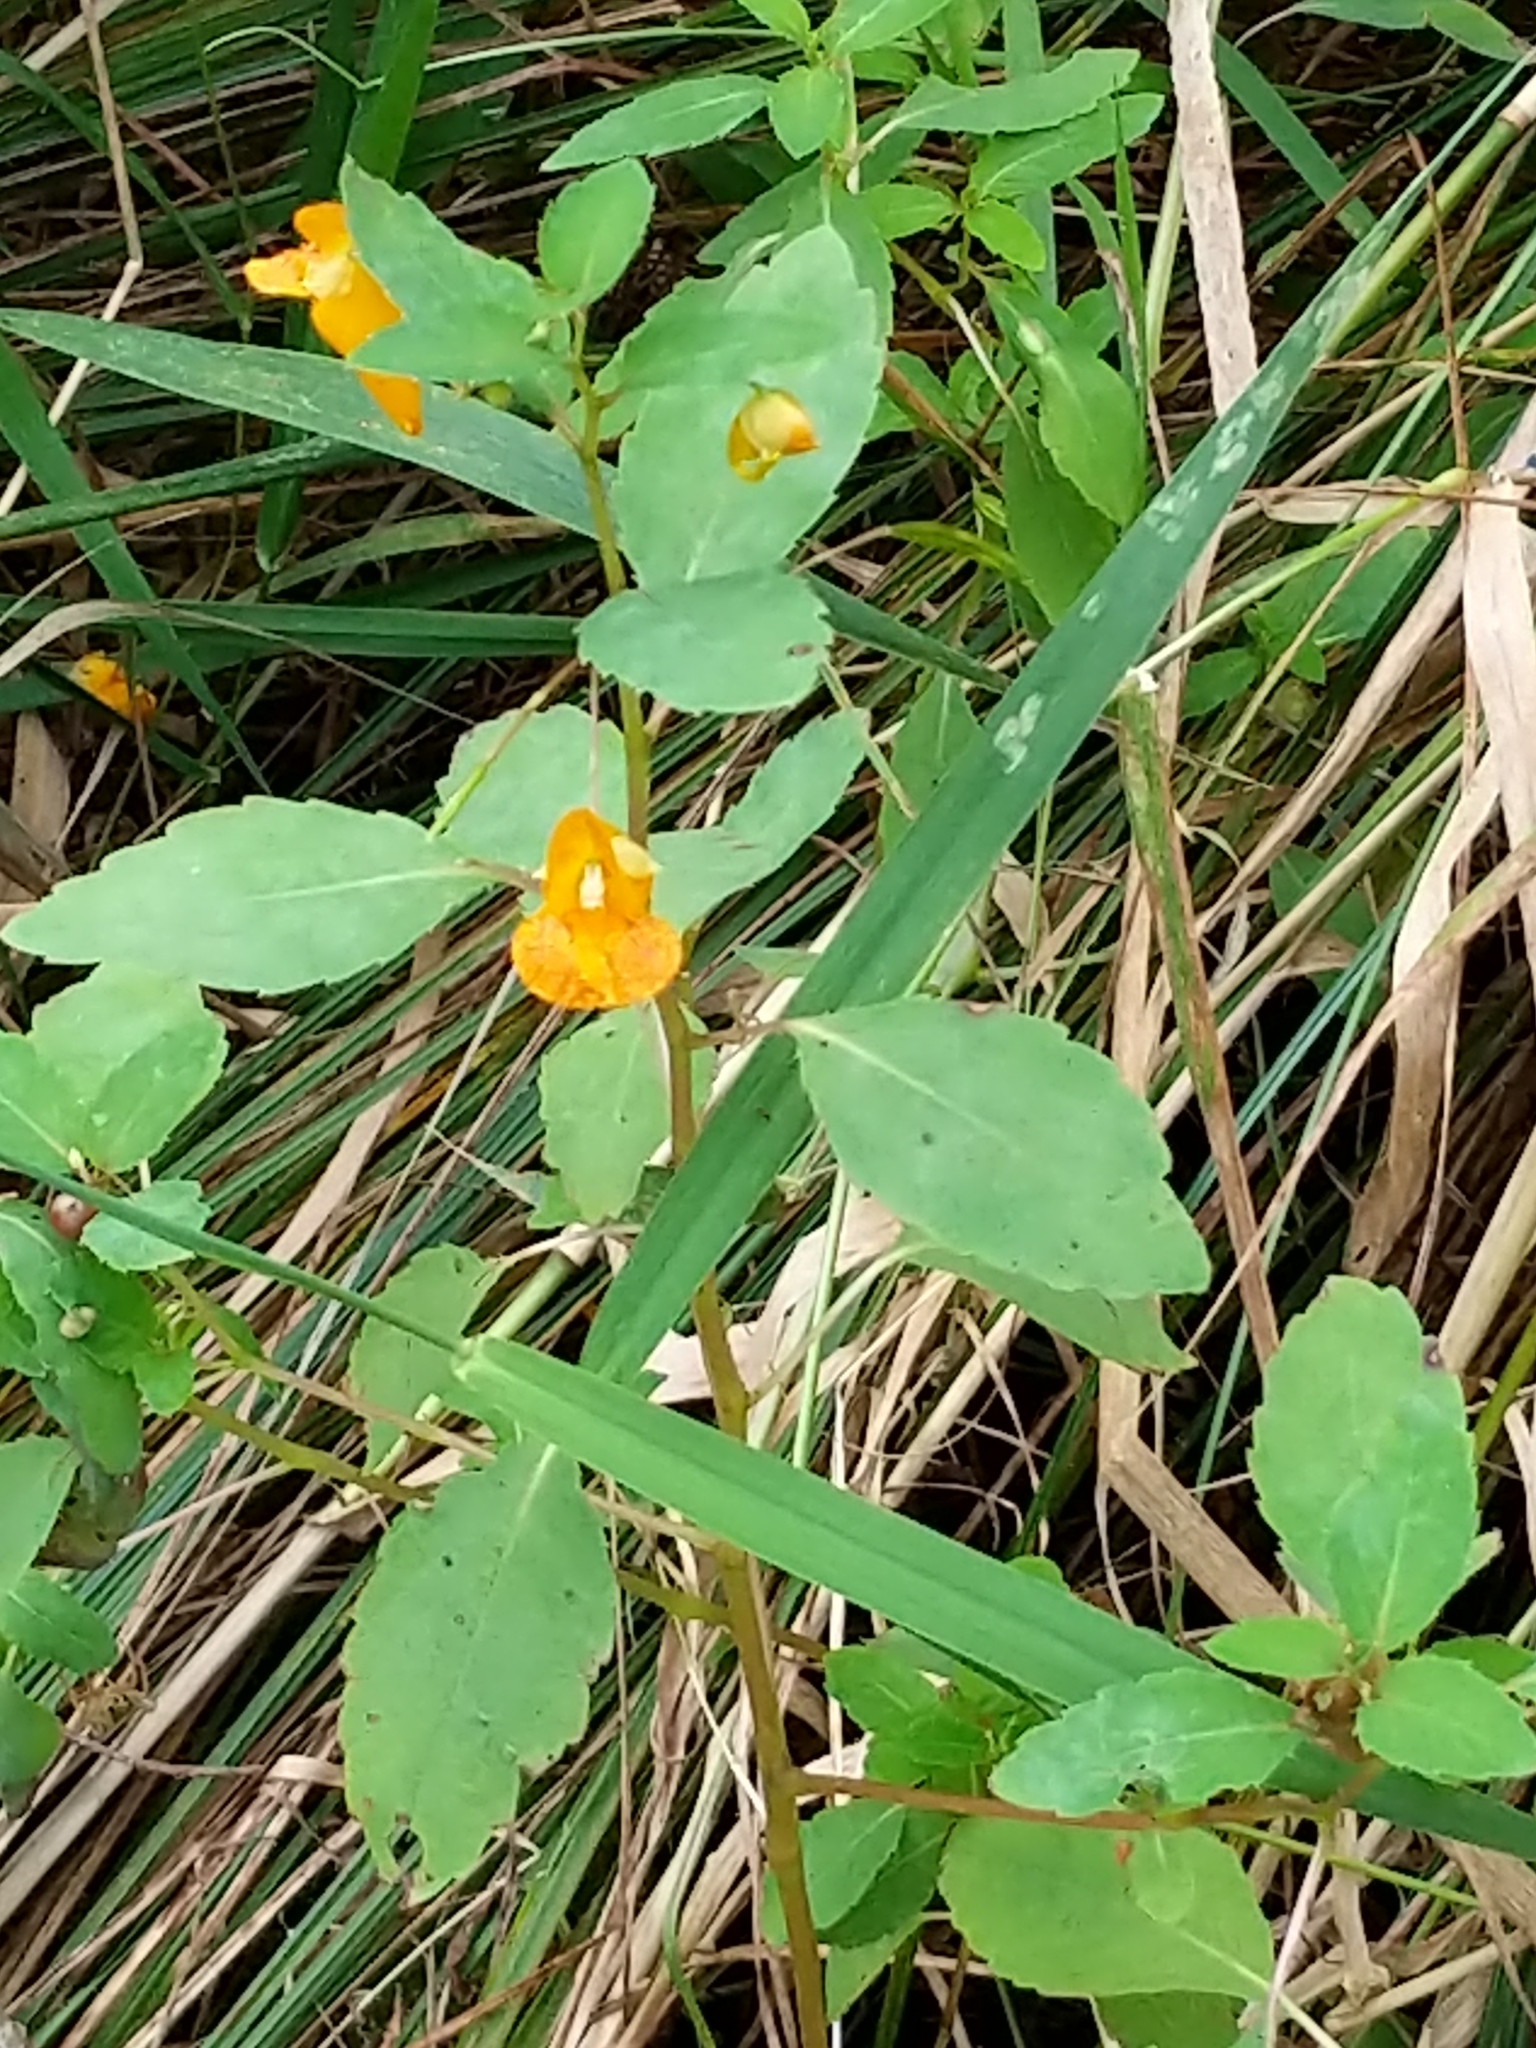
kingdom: Plantae
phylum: Tracheophyta
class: Magnoliopsida
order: Ericales
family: Balsaminaceae
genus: Impatiens
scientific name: Impatiens capensis
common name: Orange balsam
